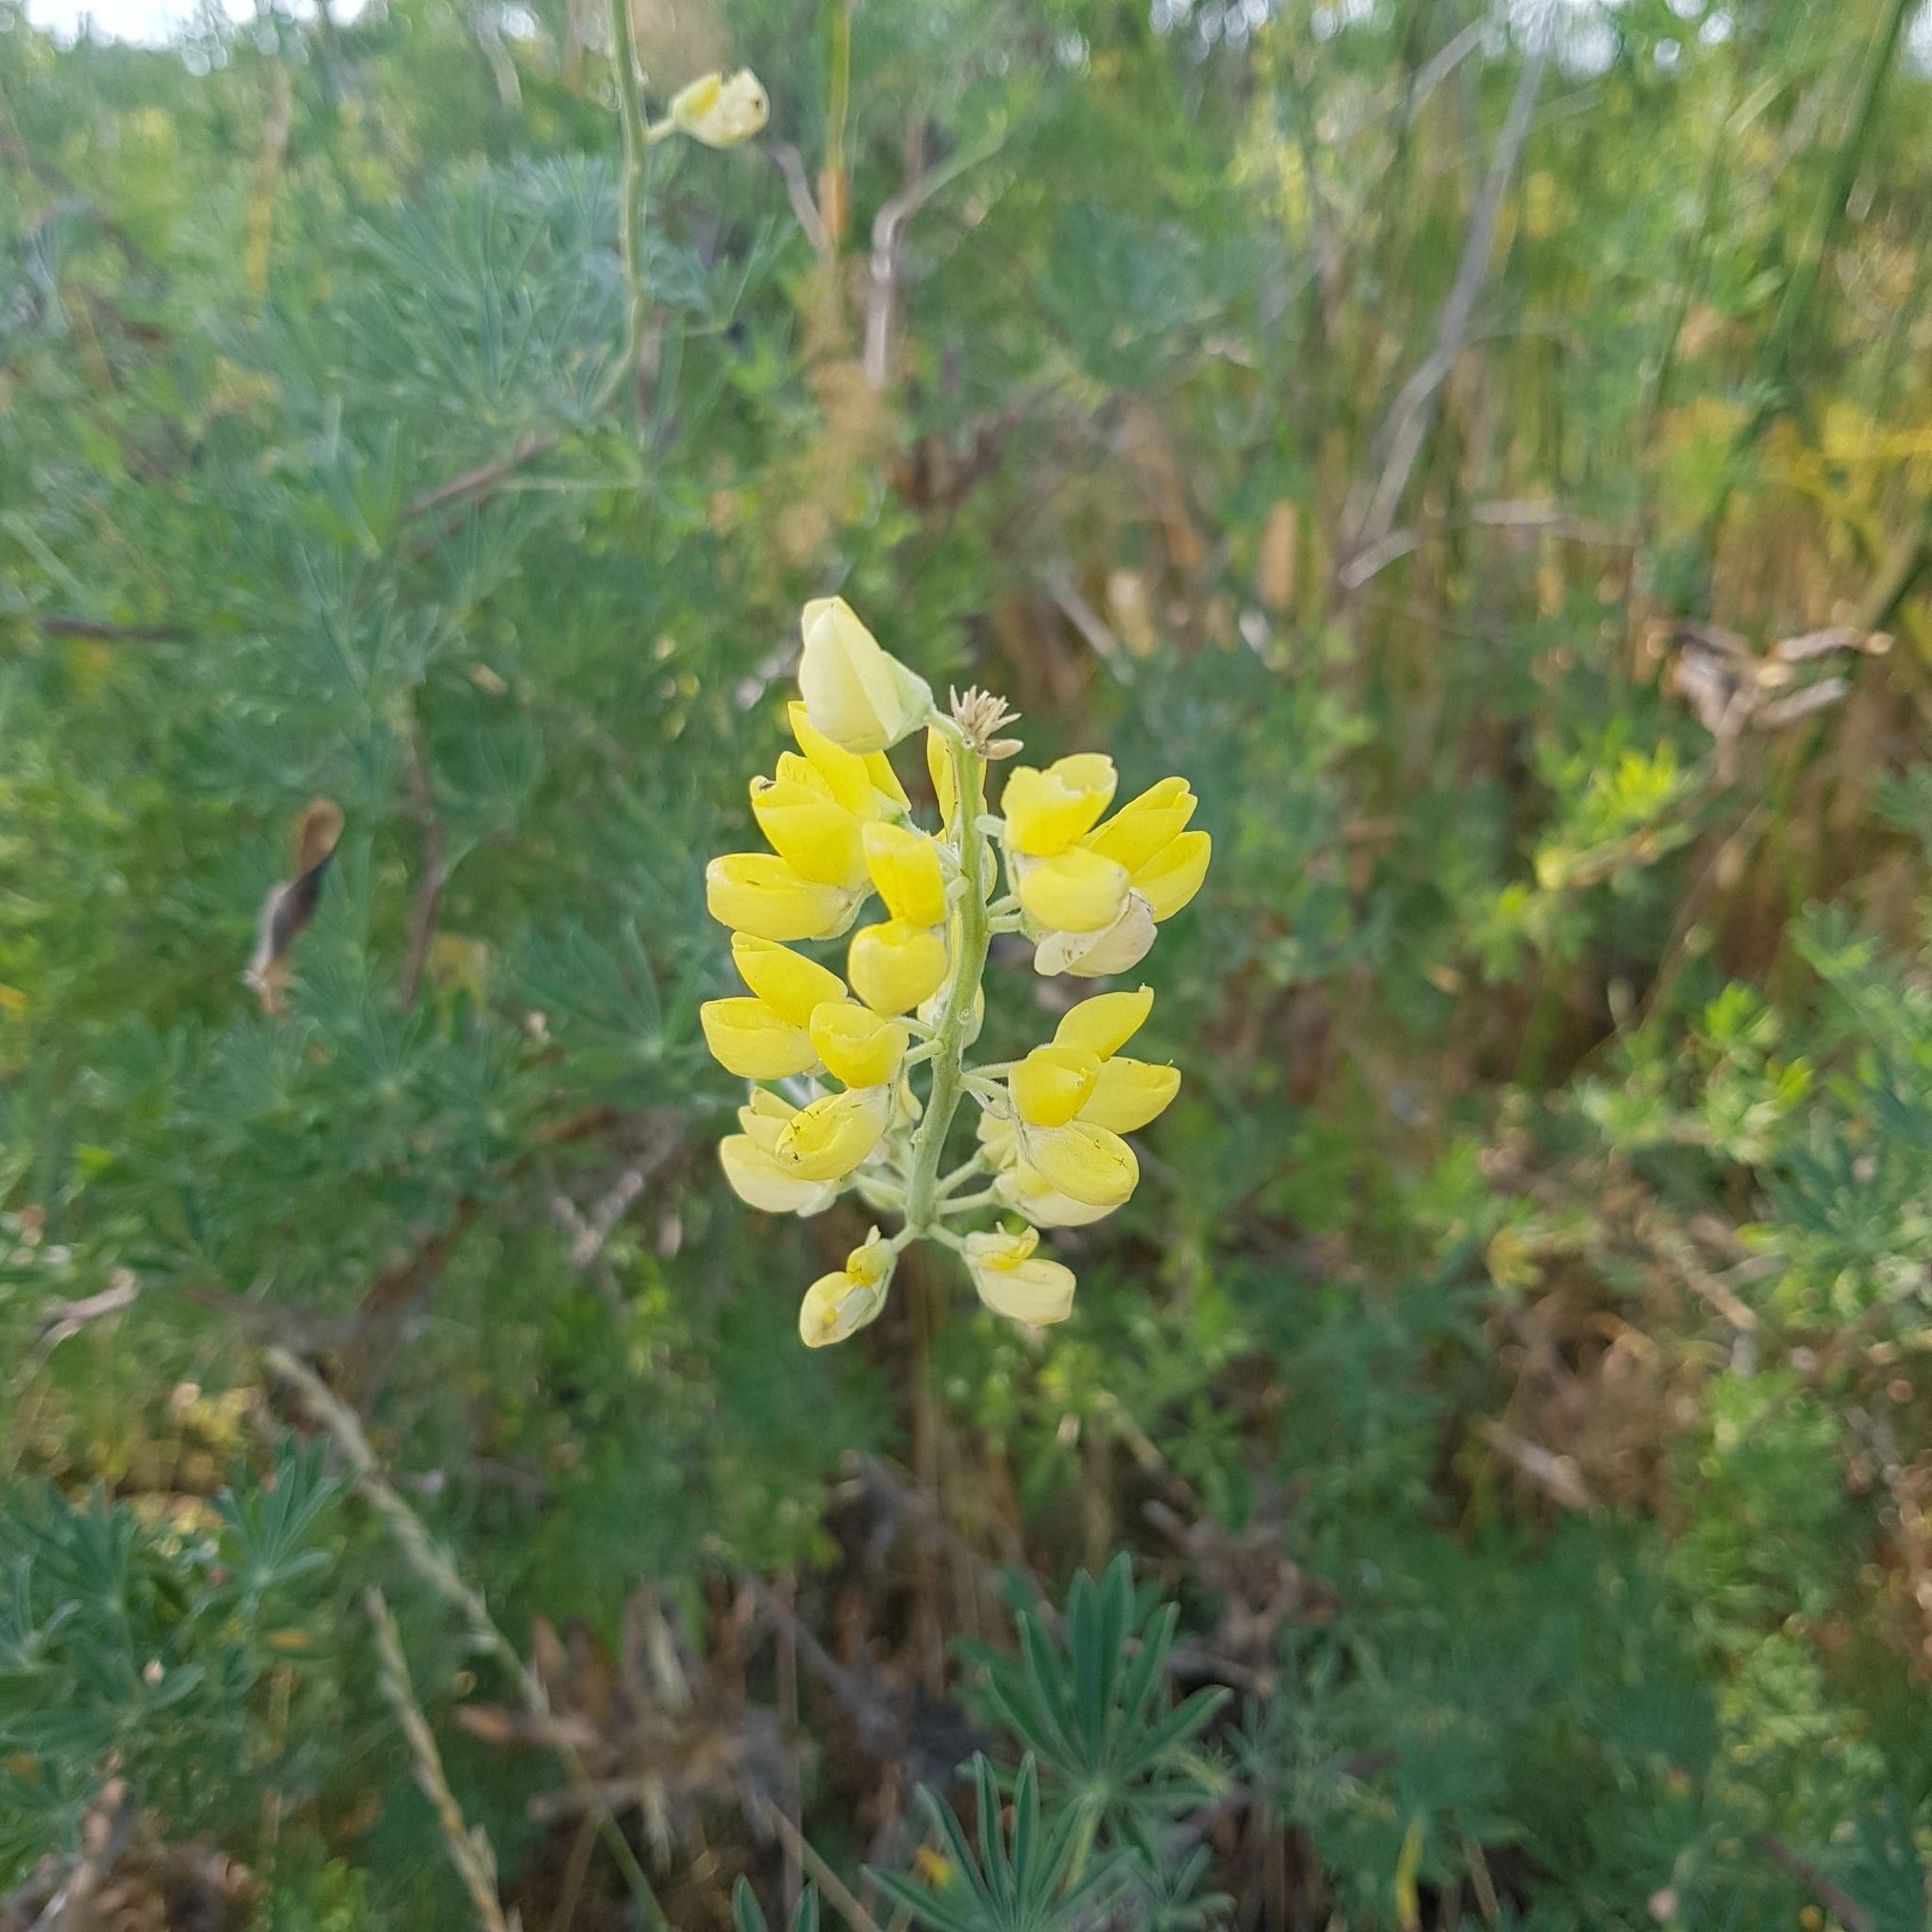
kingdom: Plantae
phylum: Tracheophyta
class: Magnoliopsida
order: Fabales
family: Fabaceae
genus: Lupinus
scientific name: Lupinus arboreus
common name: Yellow bush lupine
